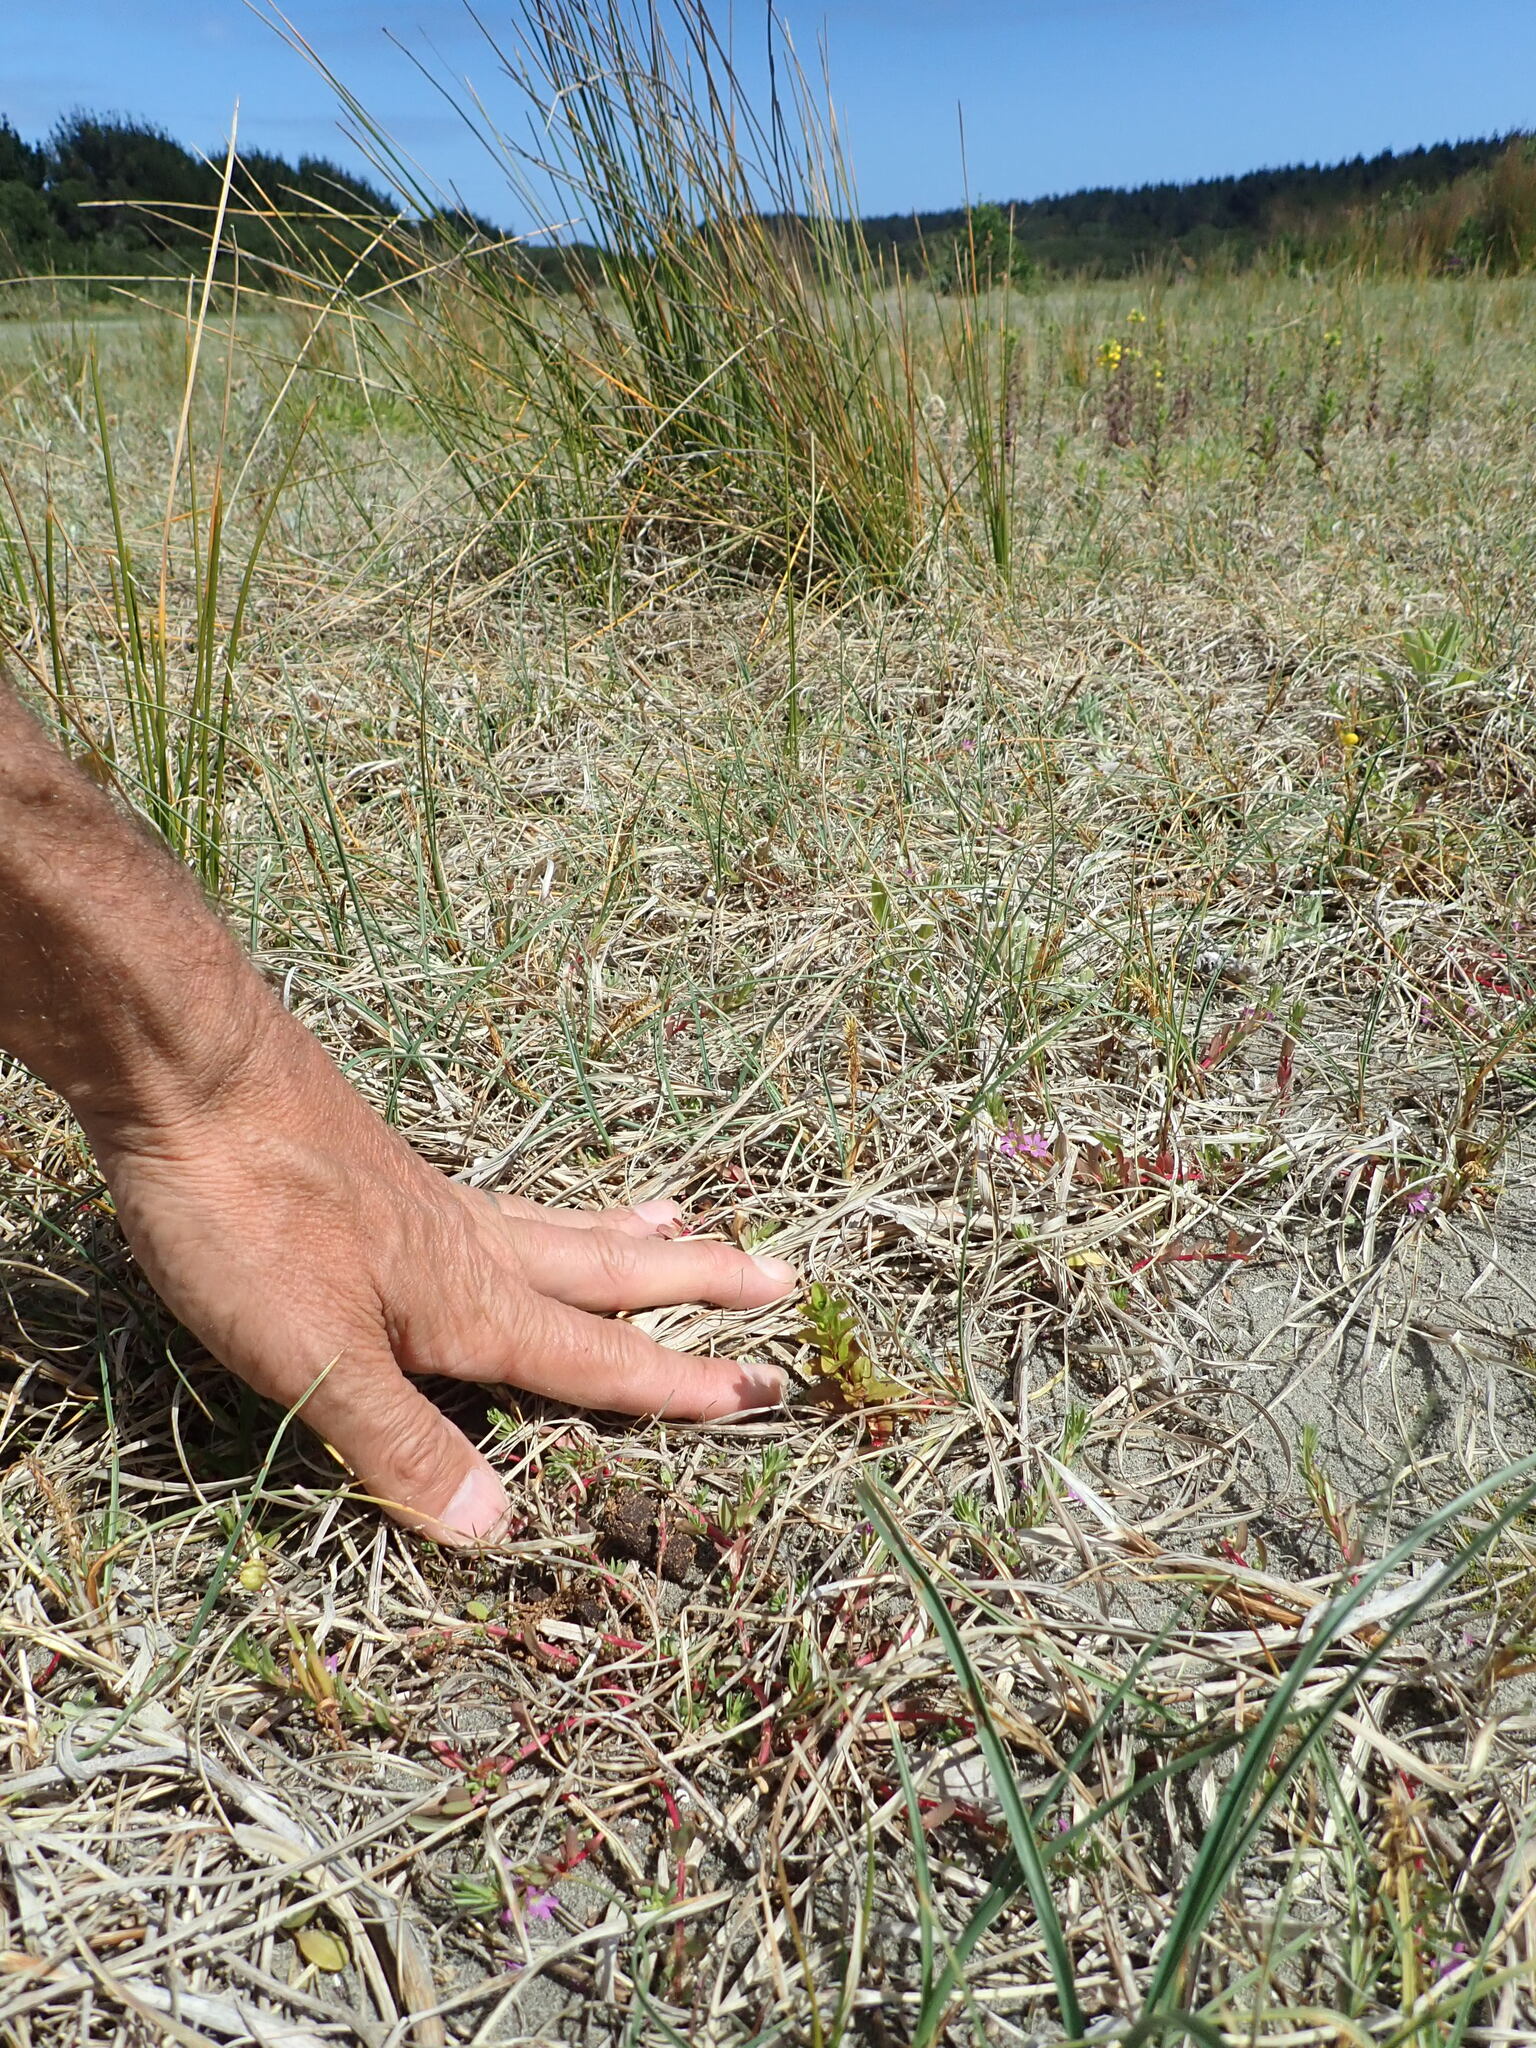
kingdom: Plantae
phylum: Tracheophyta
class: Magnoliopsida
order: Myrtales
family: Onagraceae
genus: Epilobium
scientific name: Epilobium billardiereanum
